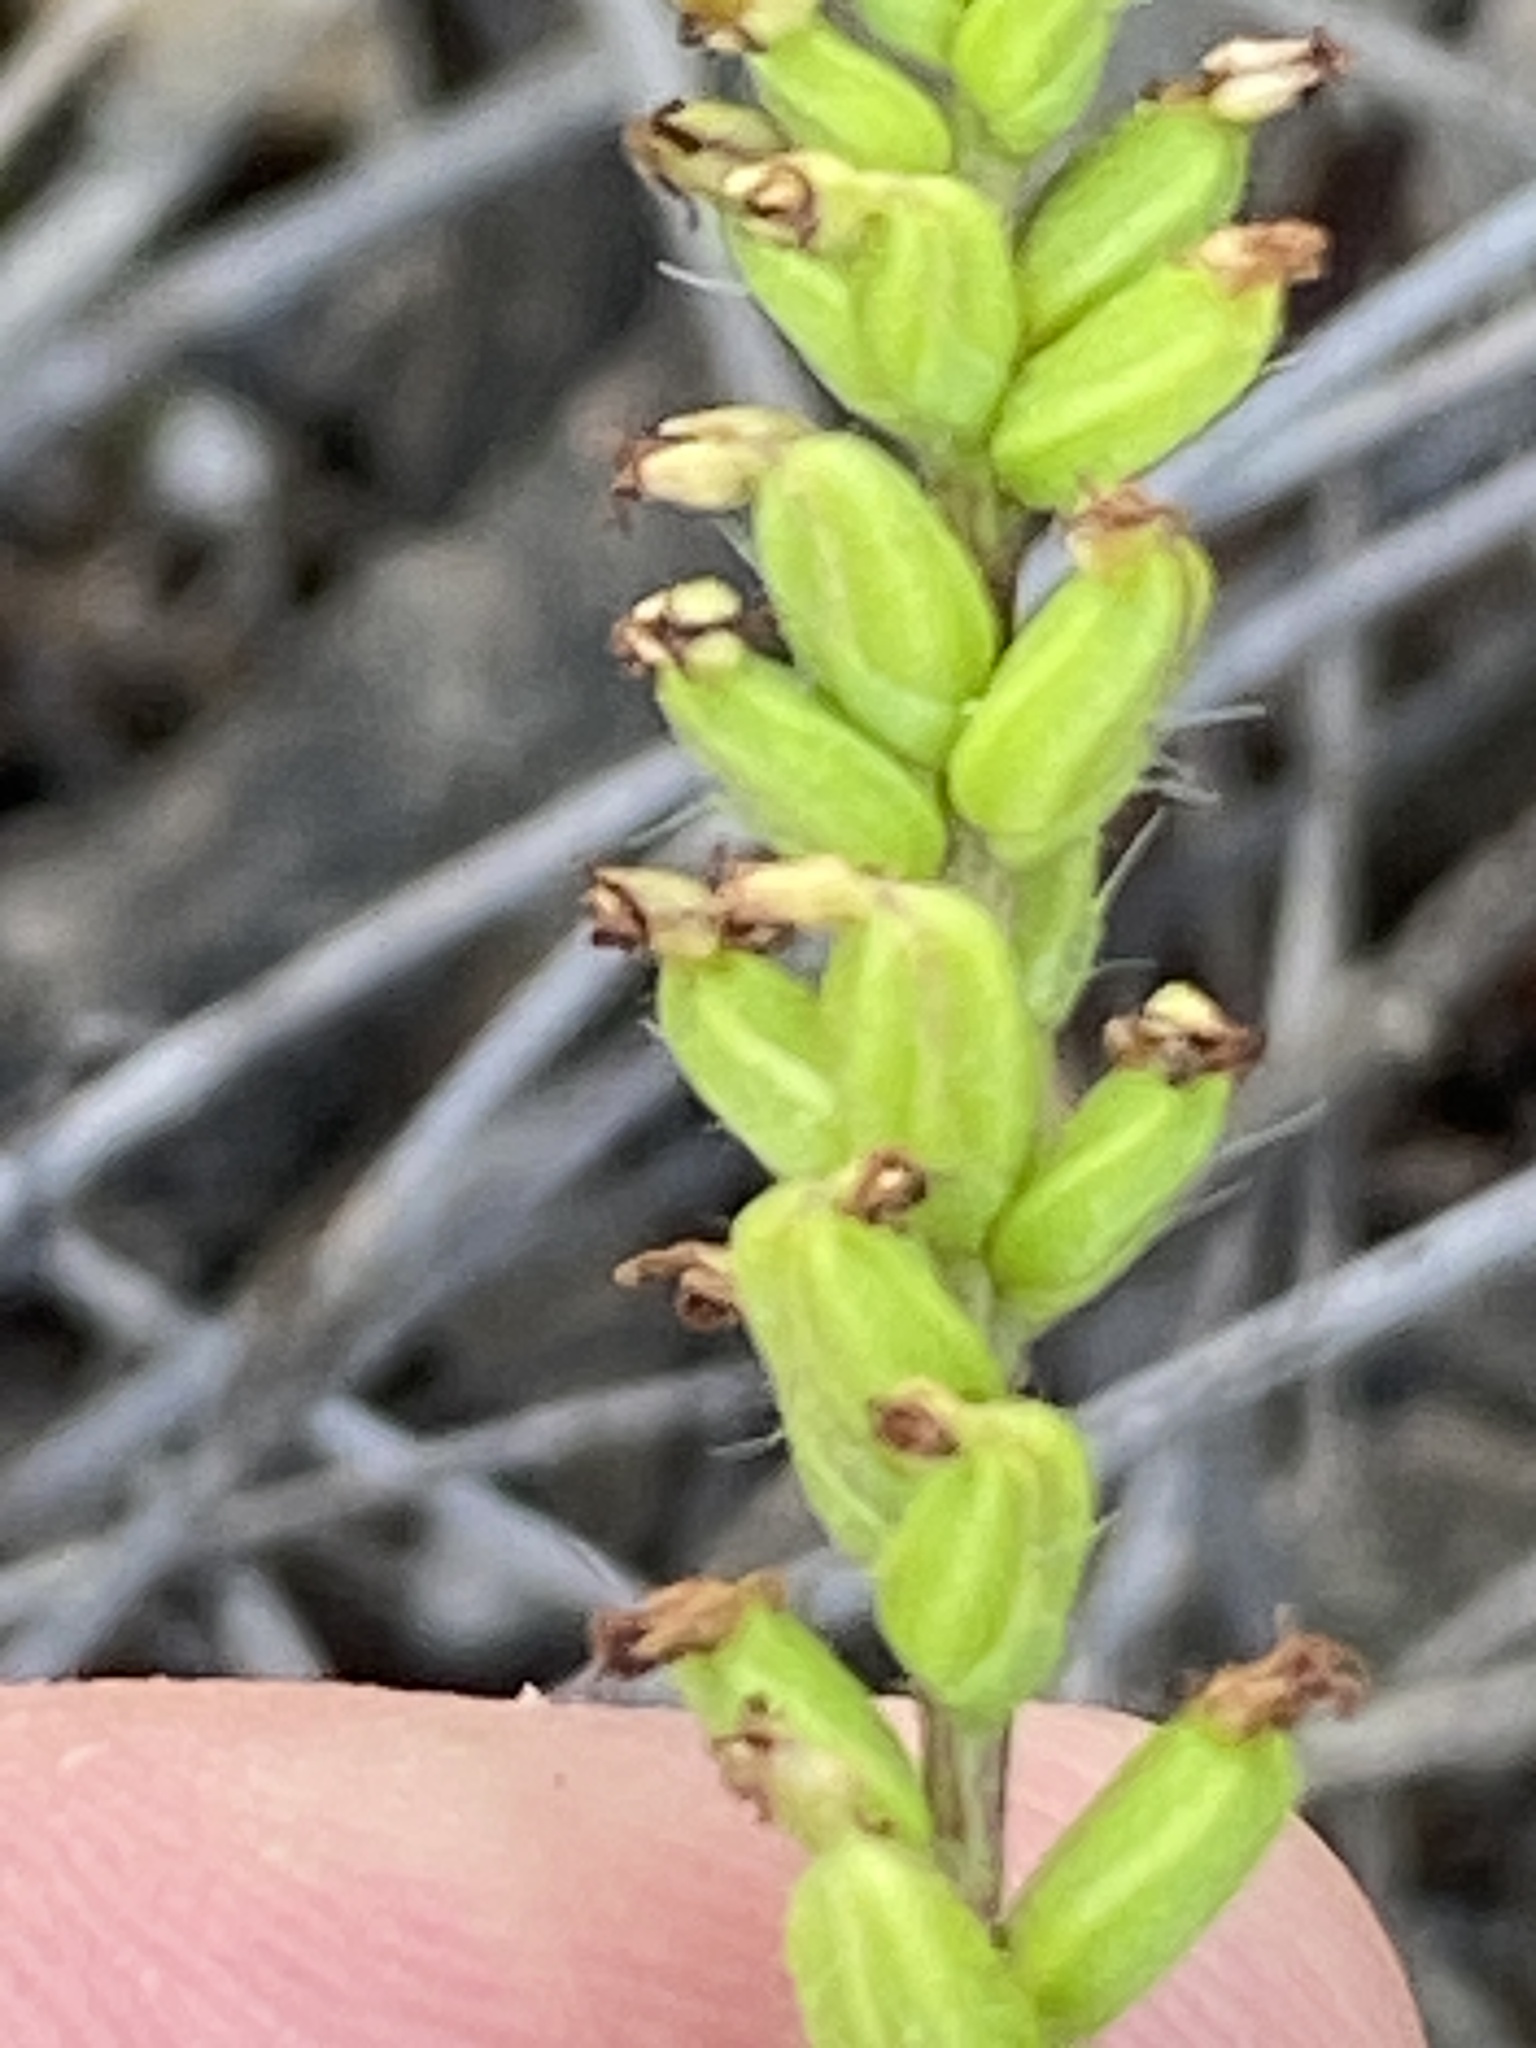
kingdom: Plantae
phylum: Tracheophyta
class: Liliopsida
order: Asparagales
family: Orchidaceae
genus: Holothrix
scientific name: Holothrix villosa
